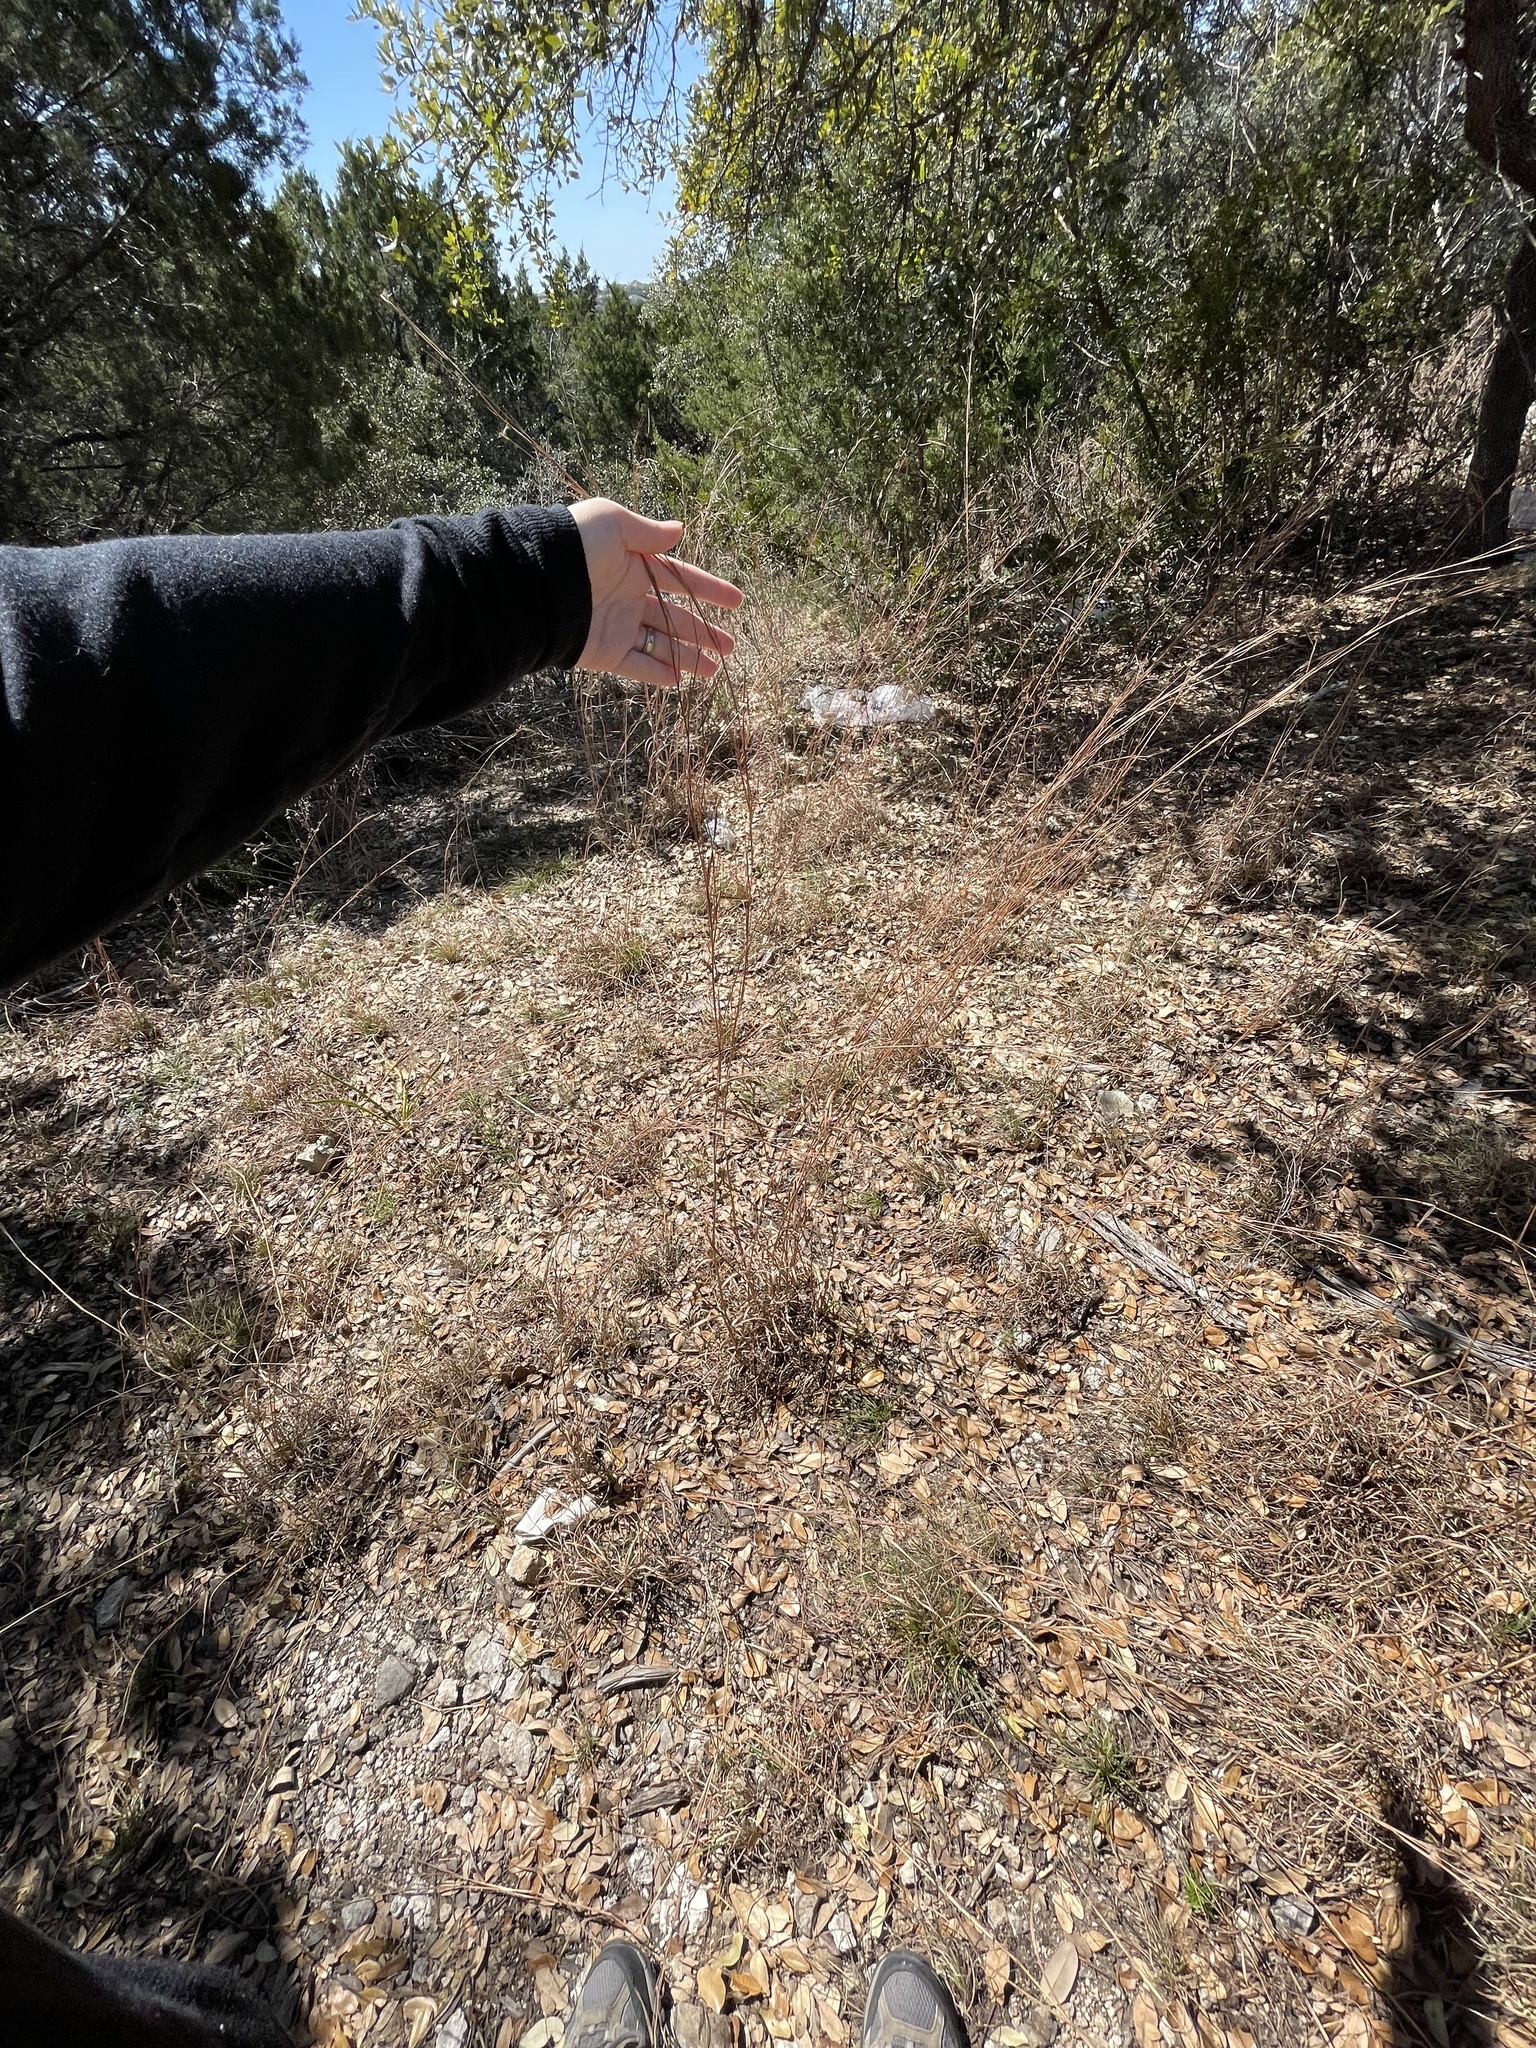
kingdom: Plantae
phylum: Tracheophyta
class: Liliopsida
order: Poales
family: Poaceae
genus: Schizachyrium
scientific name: Schizachyrium scoparium
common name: Little bluestem
